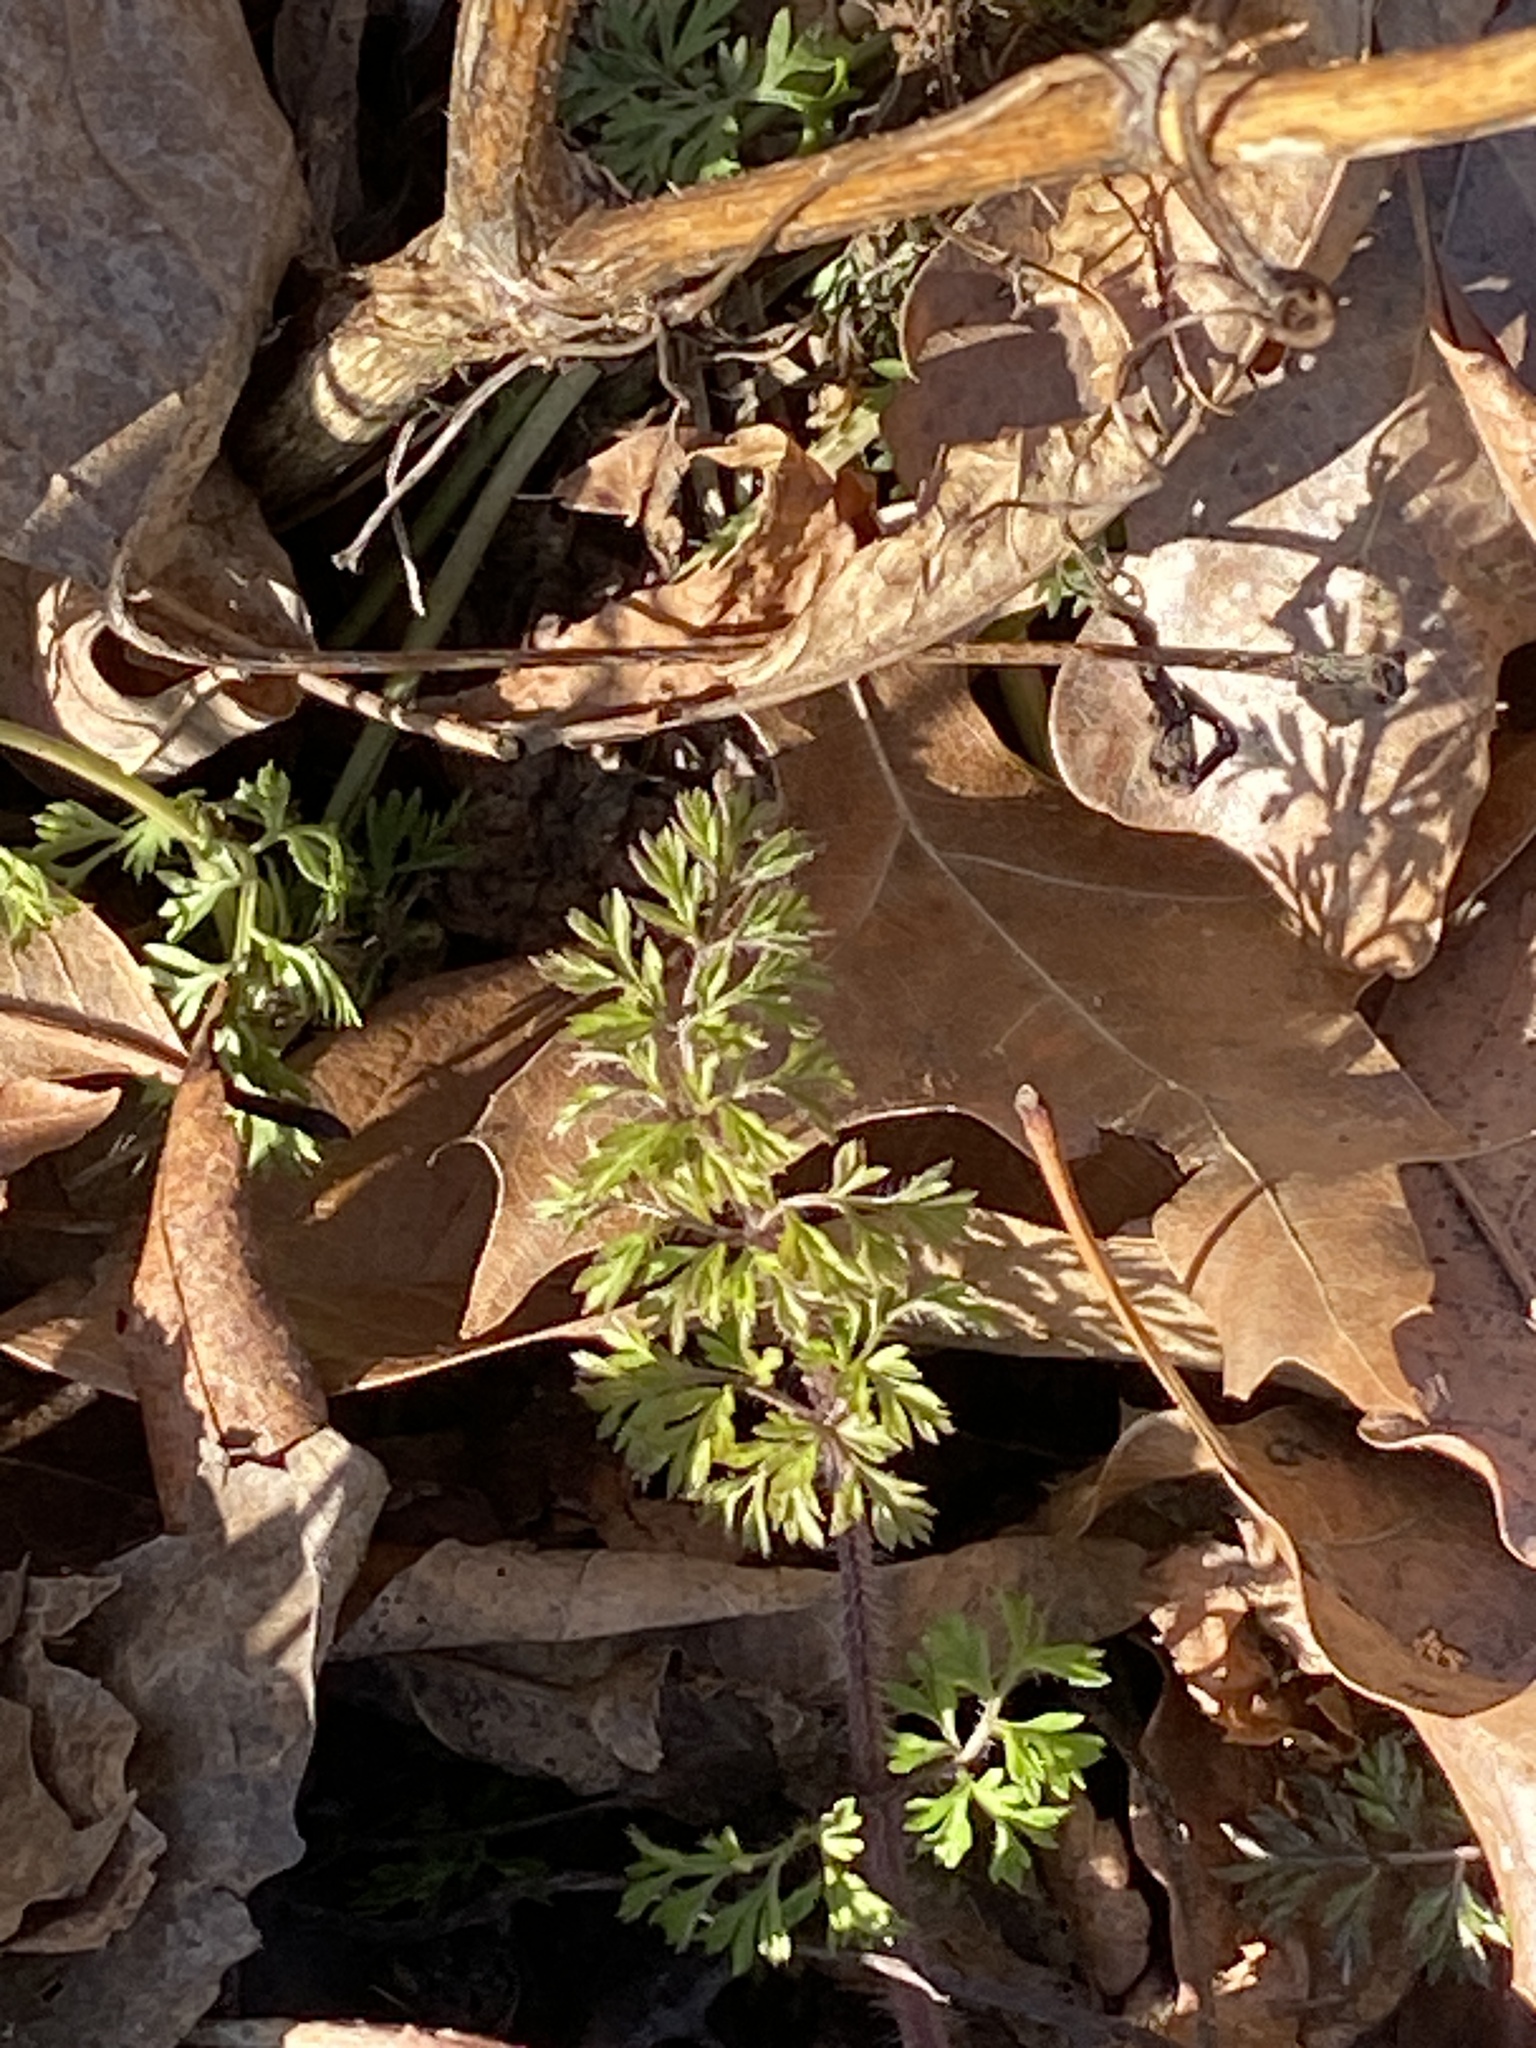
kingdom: Plantae
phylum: Tracheophyta
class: Magnoliopsida
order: Apiales
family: Apiaceae
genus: Daucus
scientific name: Daucus carota
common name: Wild carrot
